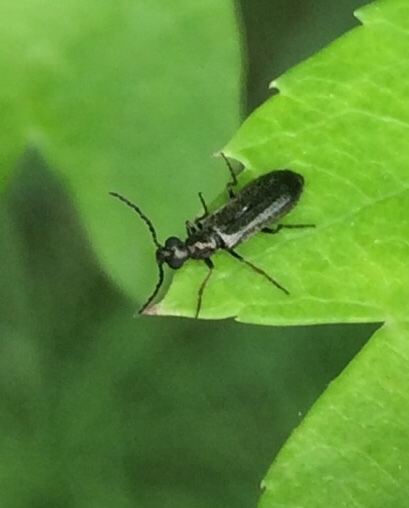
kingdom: Animalia
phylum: Arthropoda
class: Insecta
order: Coleoptera
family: Melyridae
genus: Dasytes
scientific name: Dasytes plumbeus
